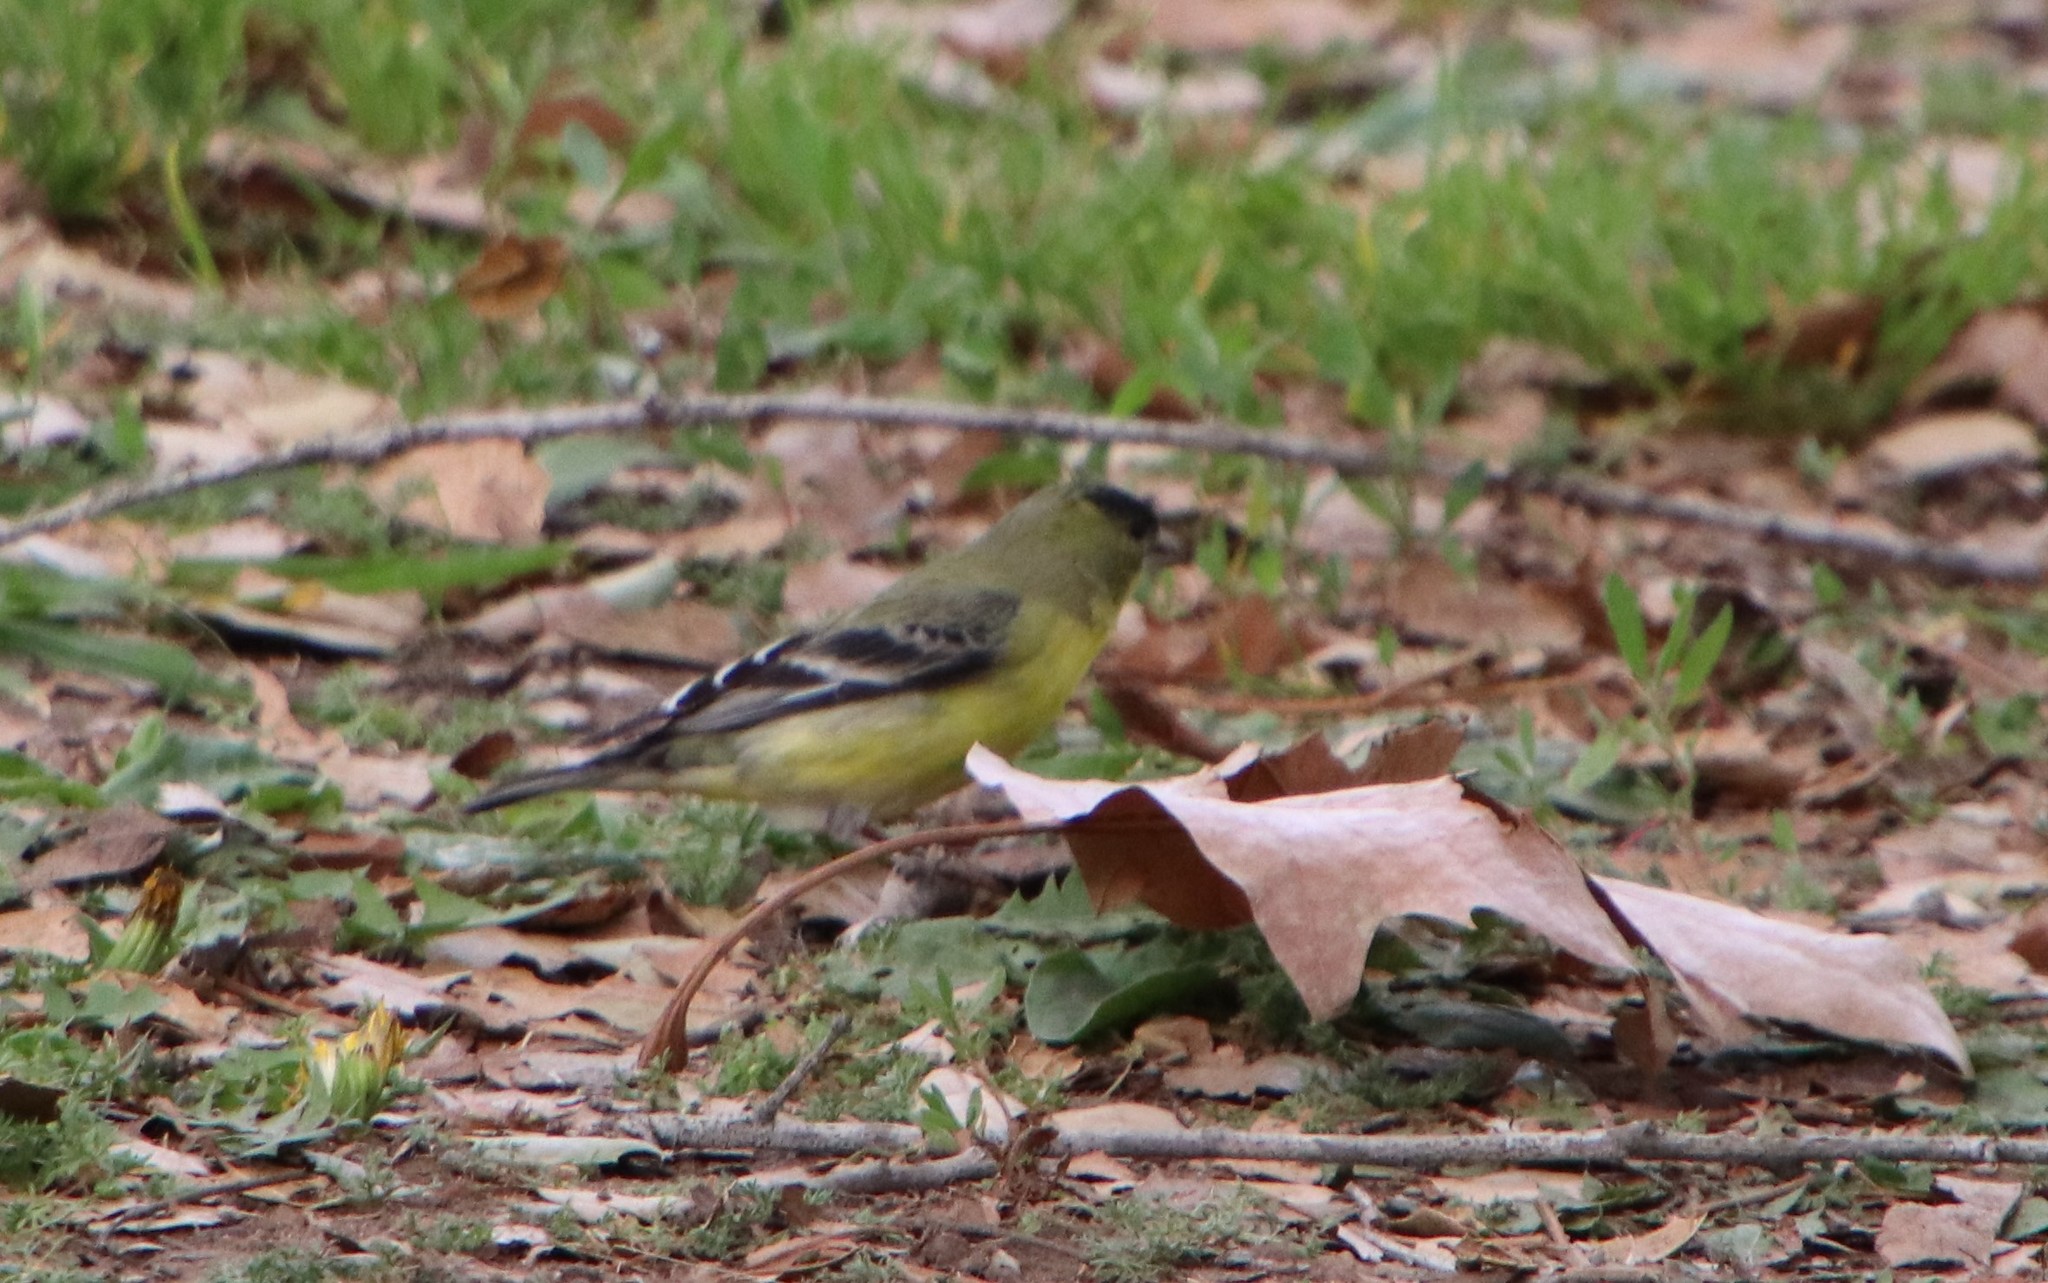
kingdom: Animalia
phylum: Chordata
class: Aves
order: Passeriformes
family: Fringillidae
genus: Spinus
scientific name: Spinus psaltria
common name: Lesser goldfinch
